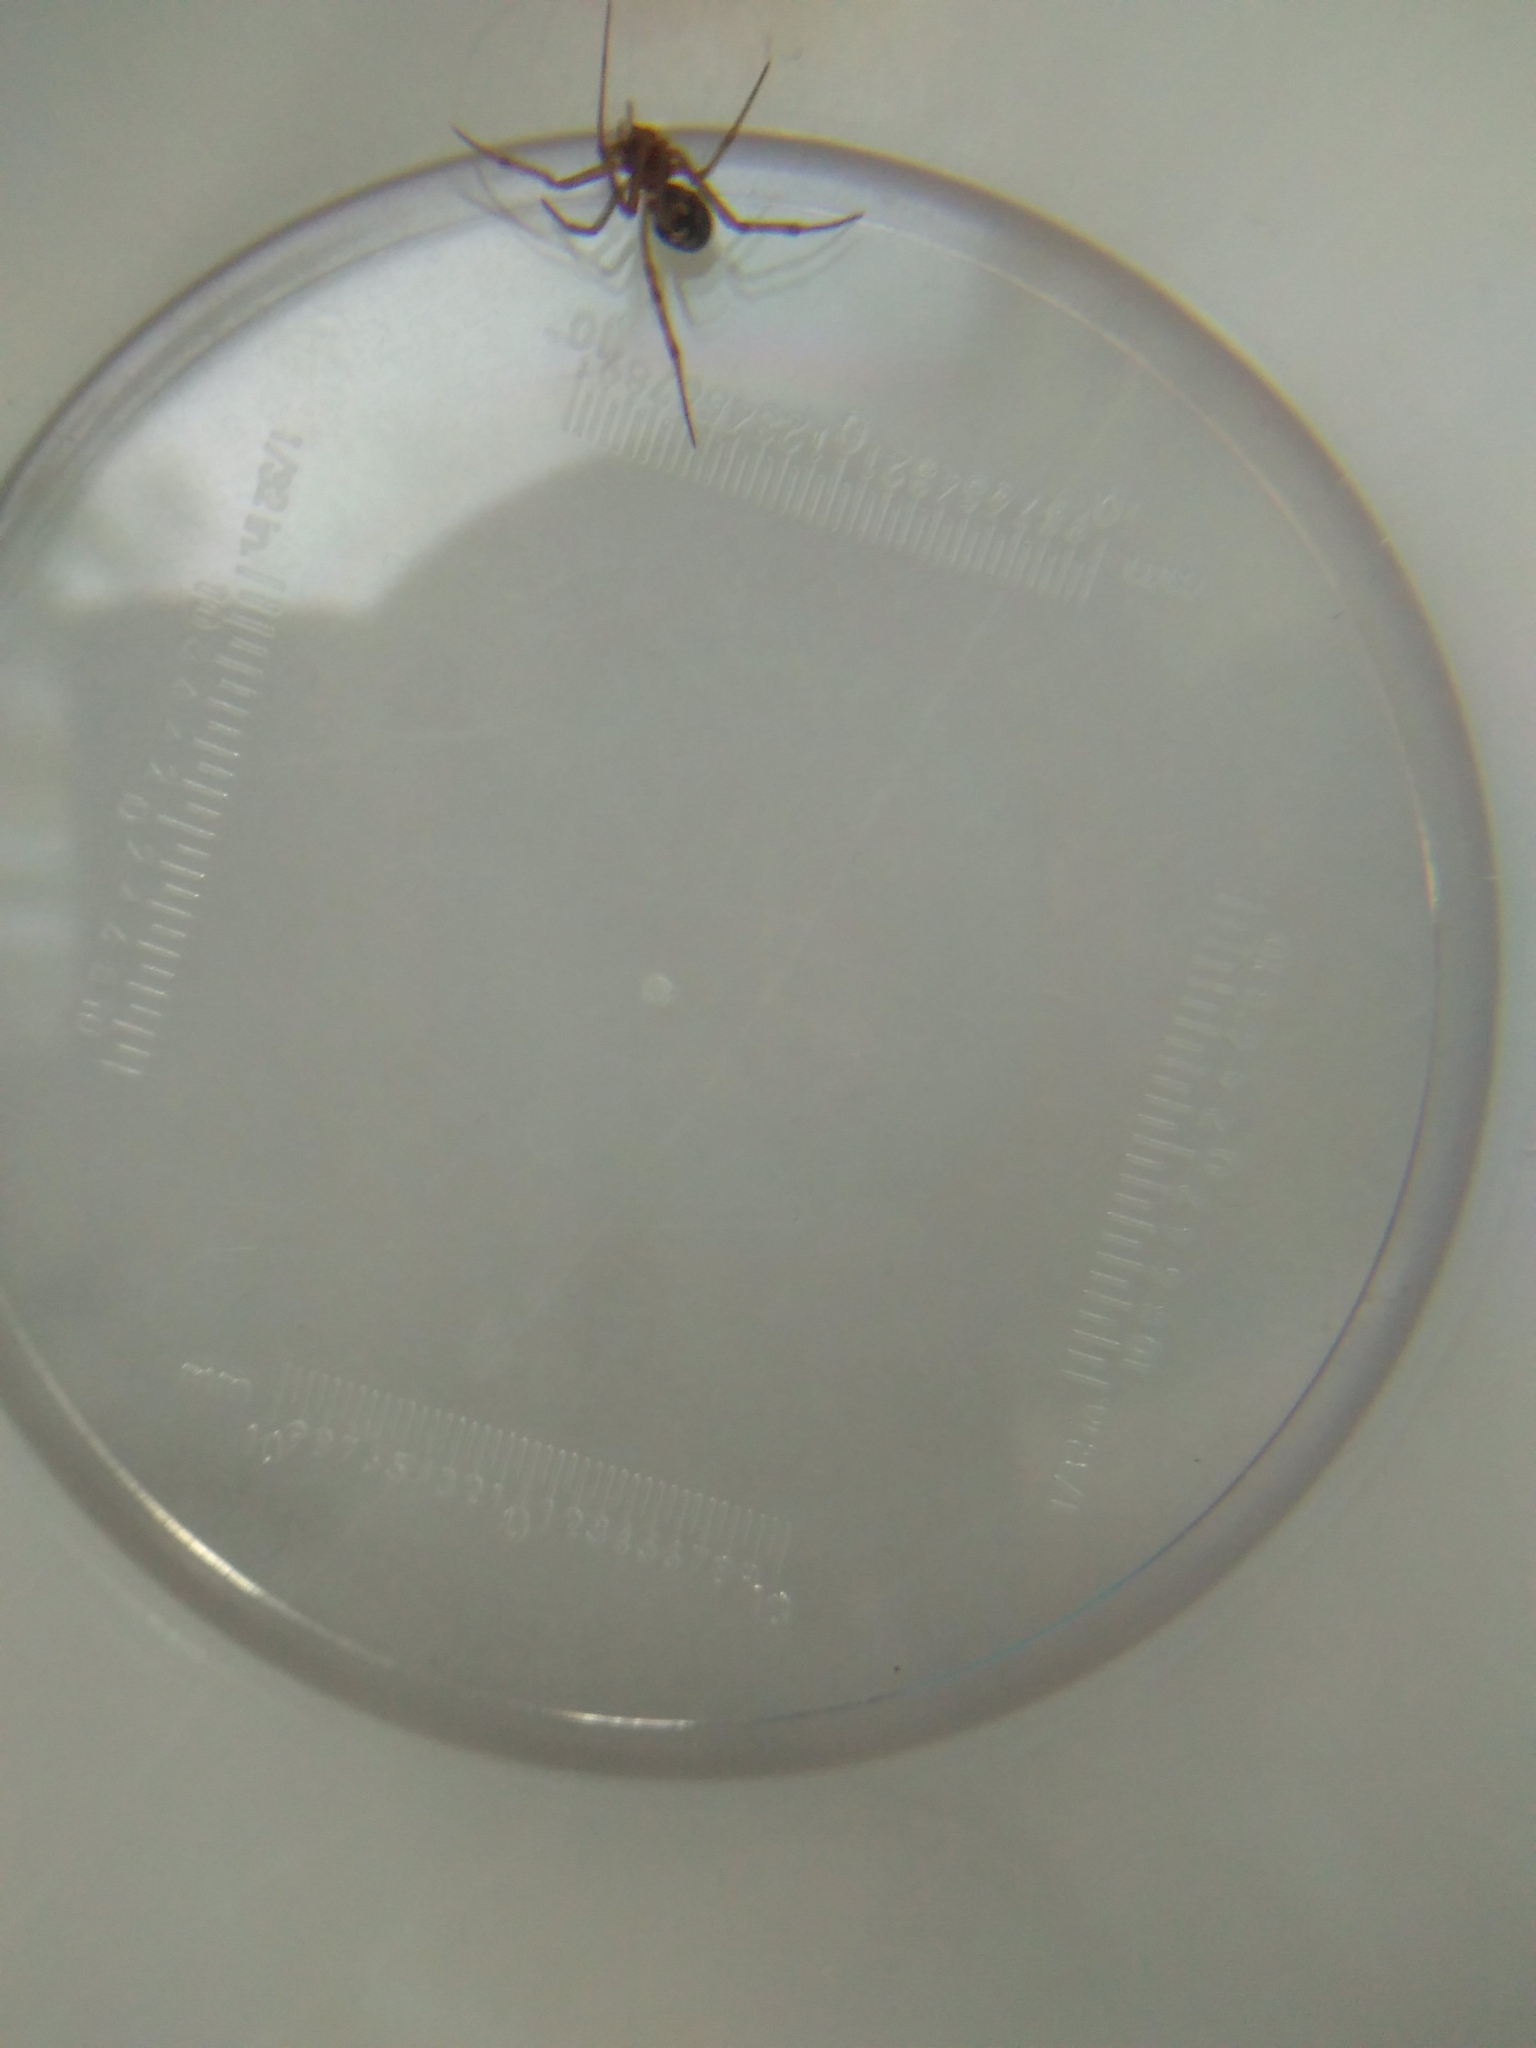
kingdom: Animalia
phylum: Arthropoda
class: Arachnida
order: Araneae
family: Theridiidae
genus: Steatoda
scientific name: Steatoda triangulosa
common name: Triangulate bud spider
